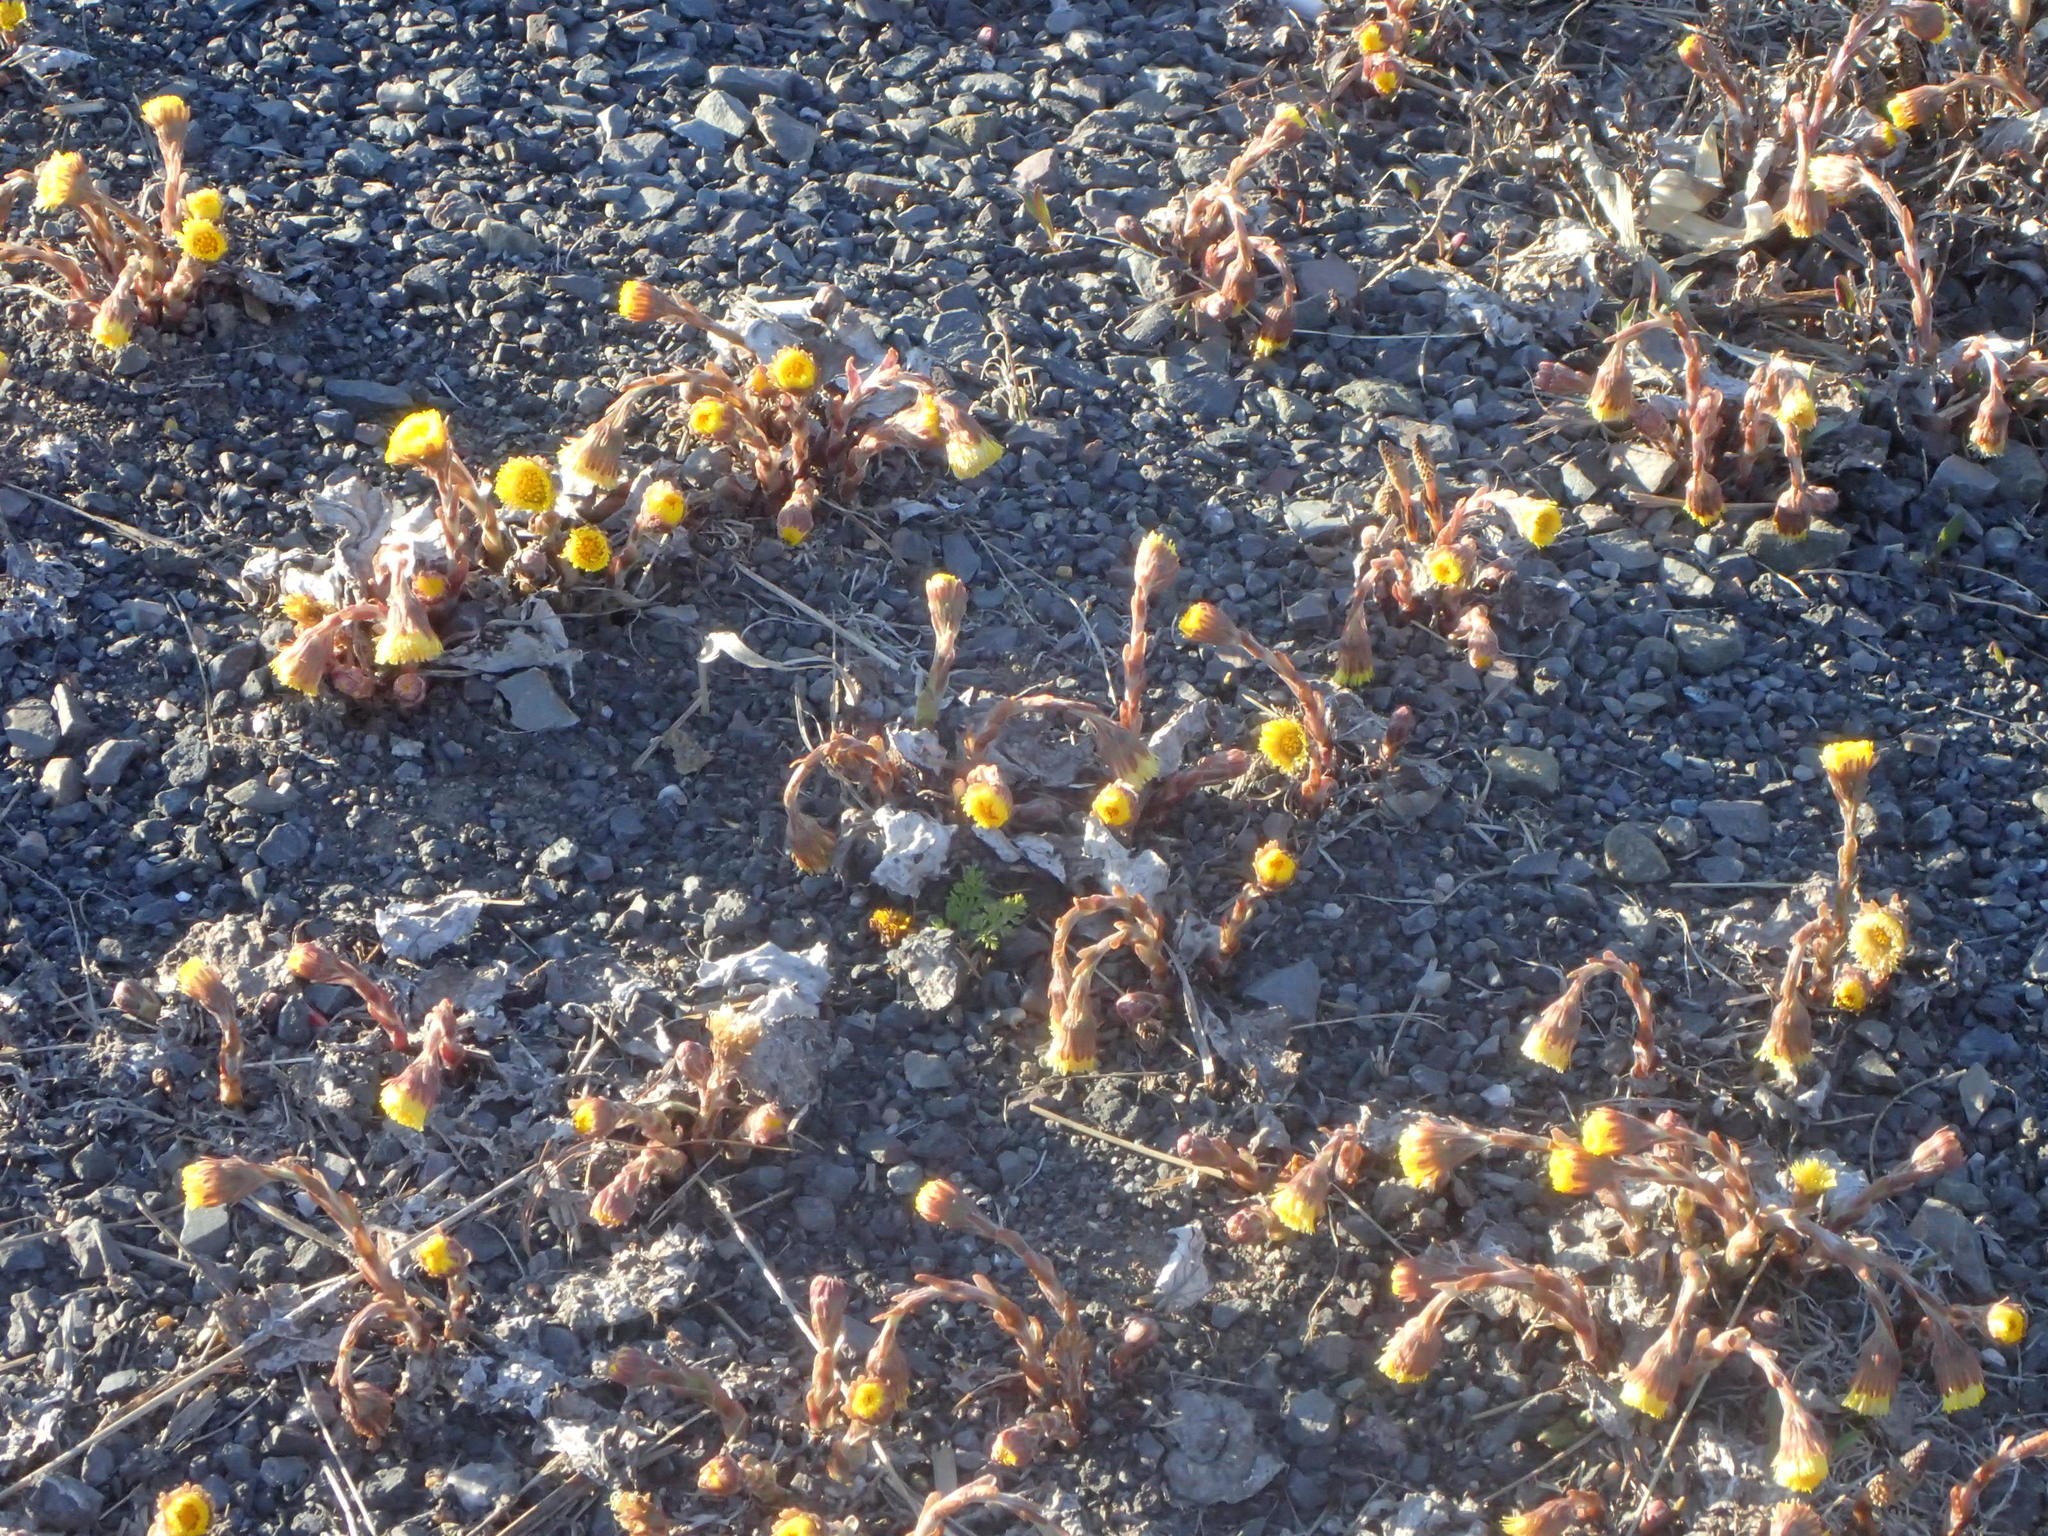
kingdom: Plantae
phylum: Tracheophyta
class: Magnoliopsida
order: Asterales
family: Asteraceae
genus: Tussilago
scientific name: Tussilago farfara
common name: Coltsfoot
